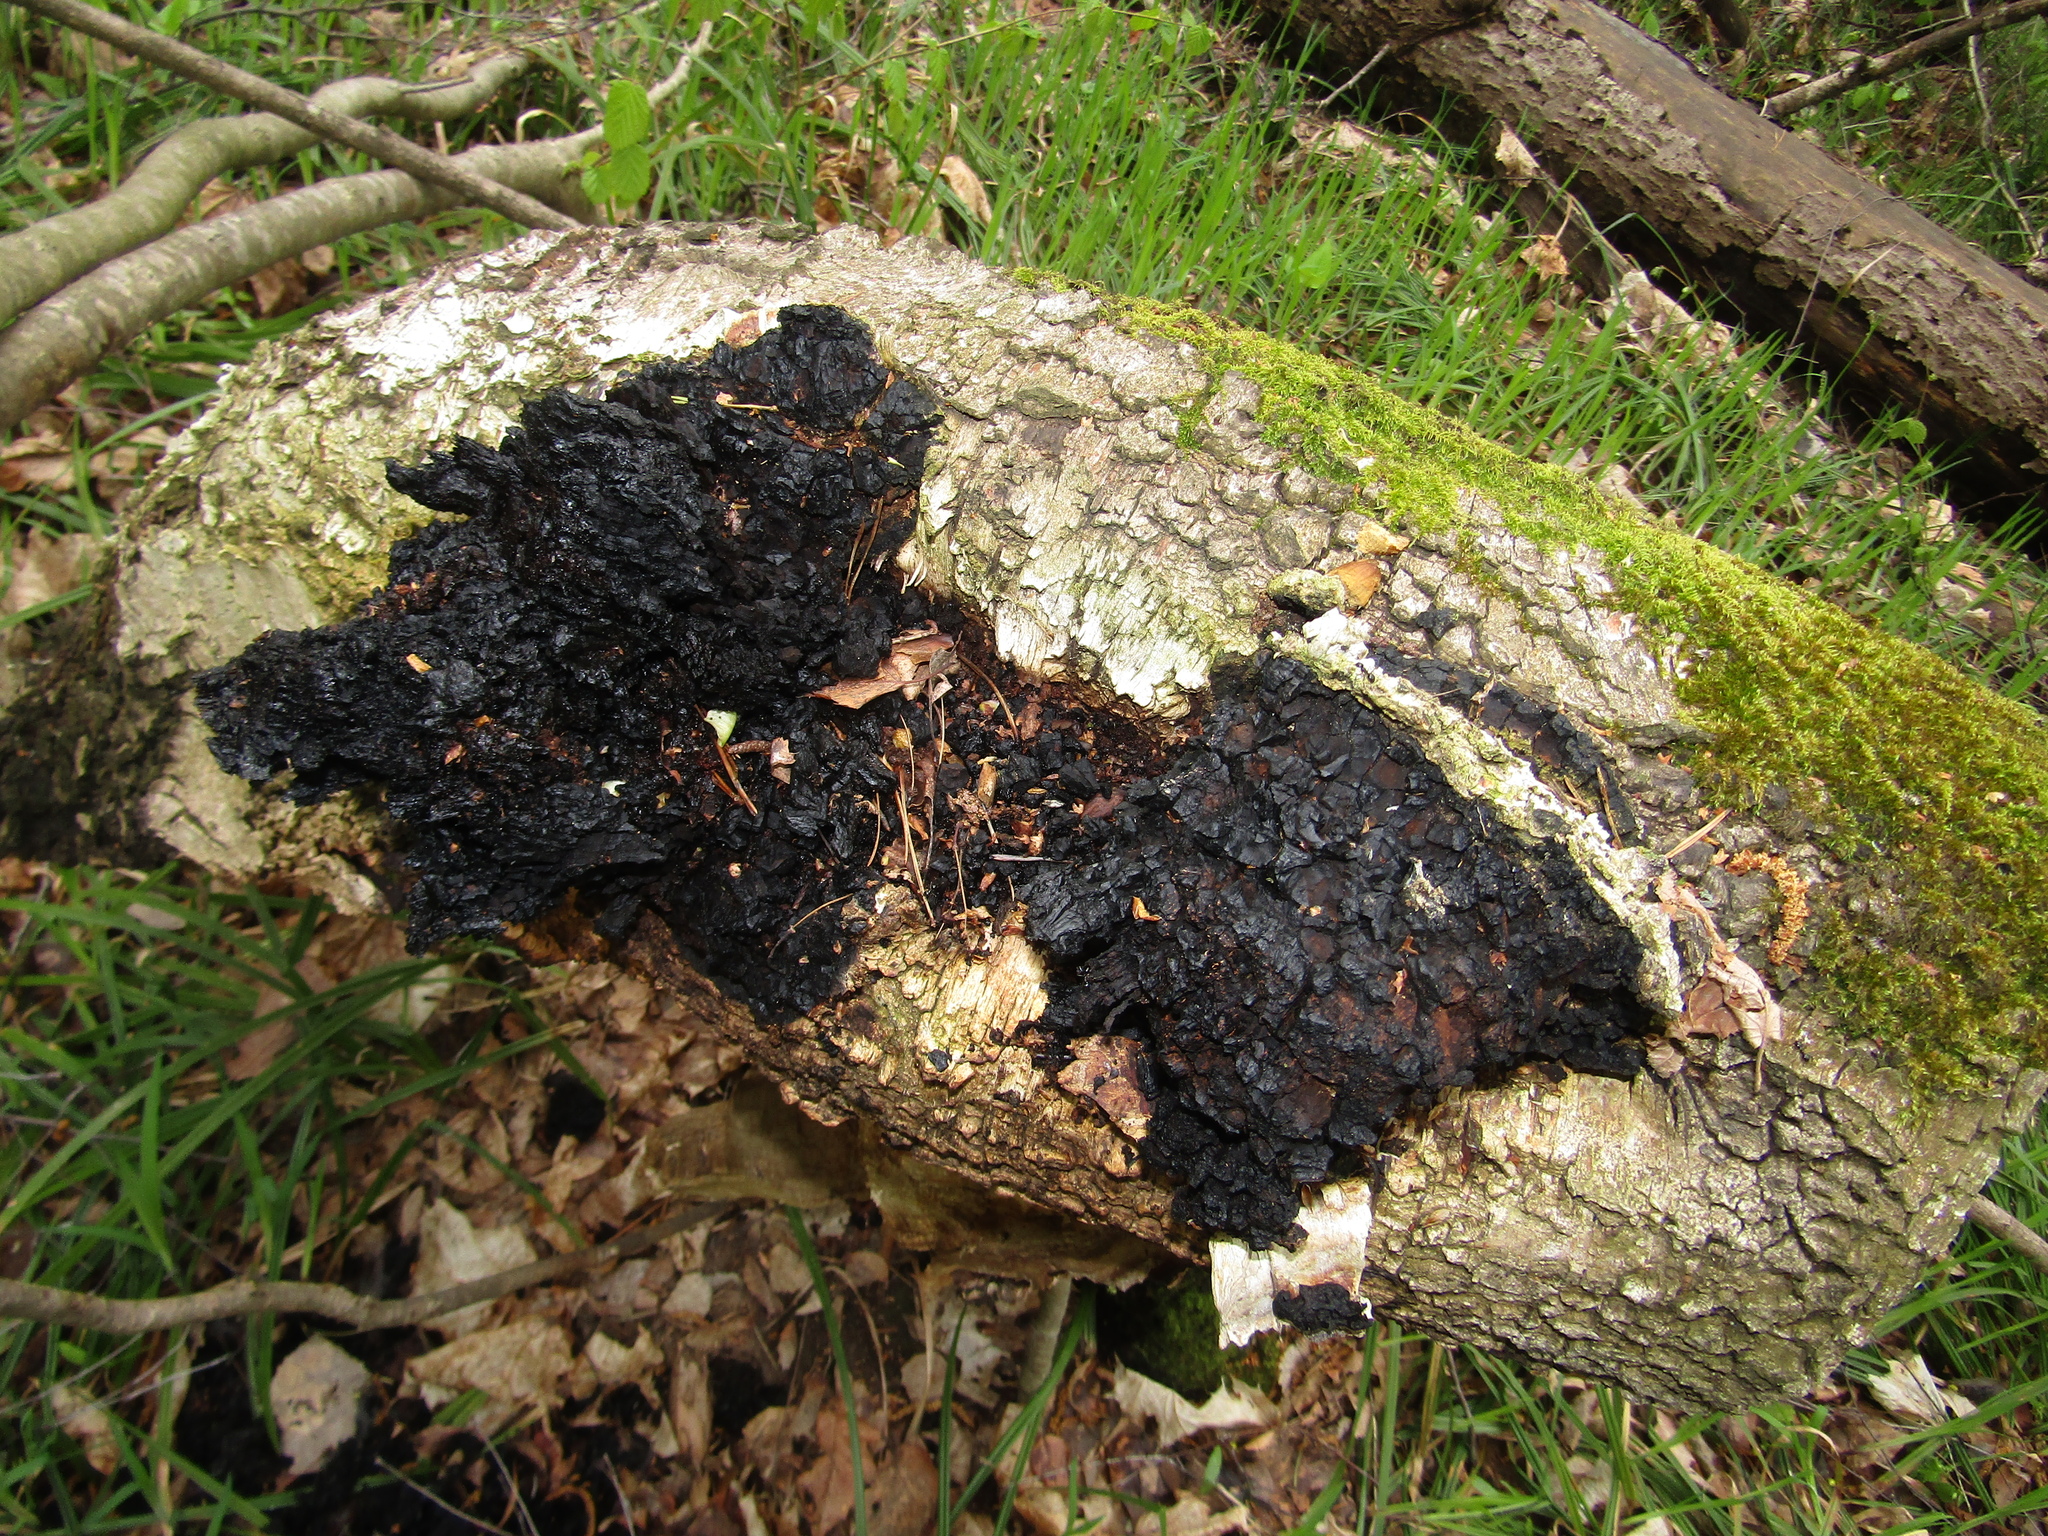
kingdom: Fungi
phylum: Basidiomycota
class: Agaricomycetes
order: Hymenochaetales
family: Hymenochaetaceae
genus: Inonotus
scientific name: Inonotus obliquus
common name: Chaga
